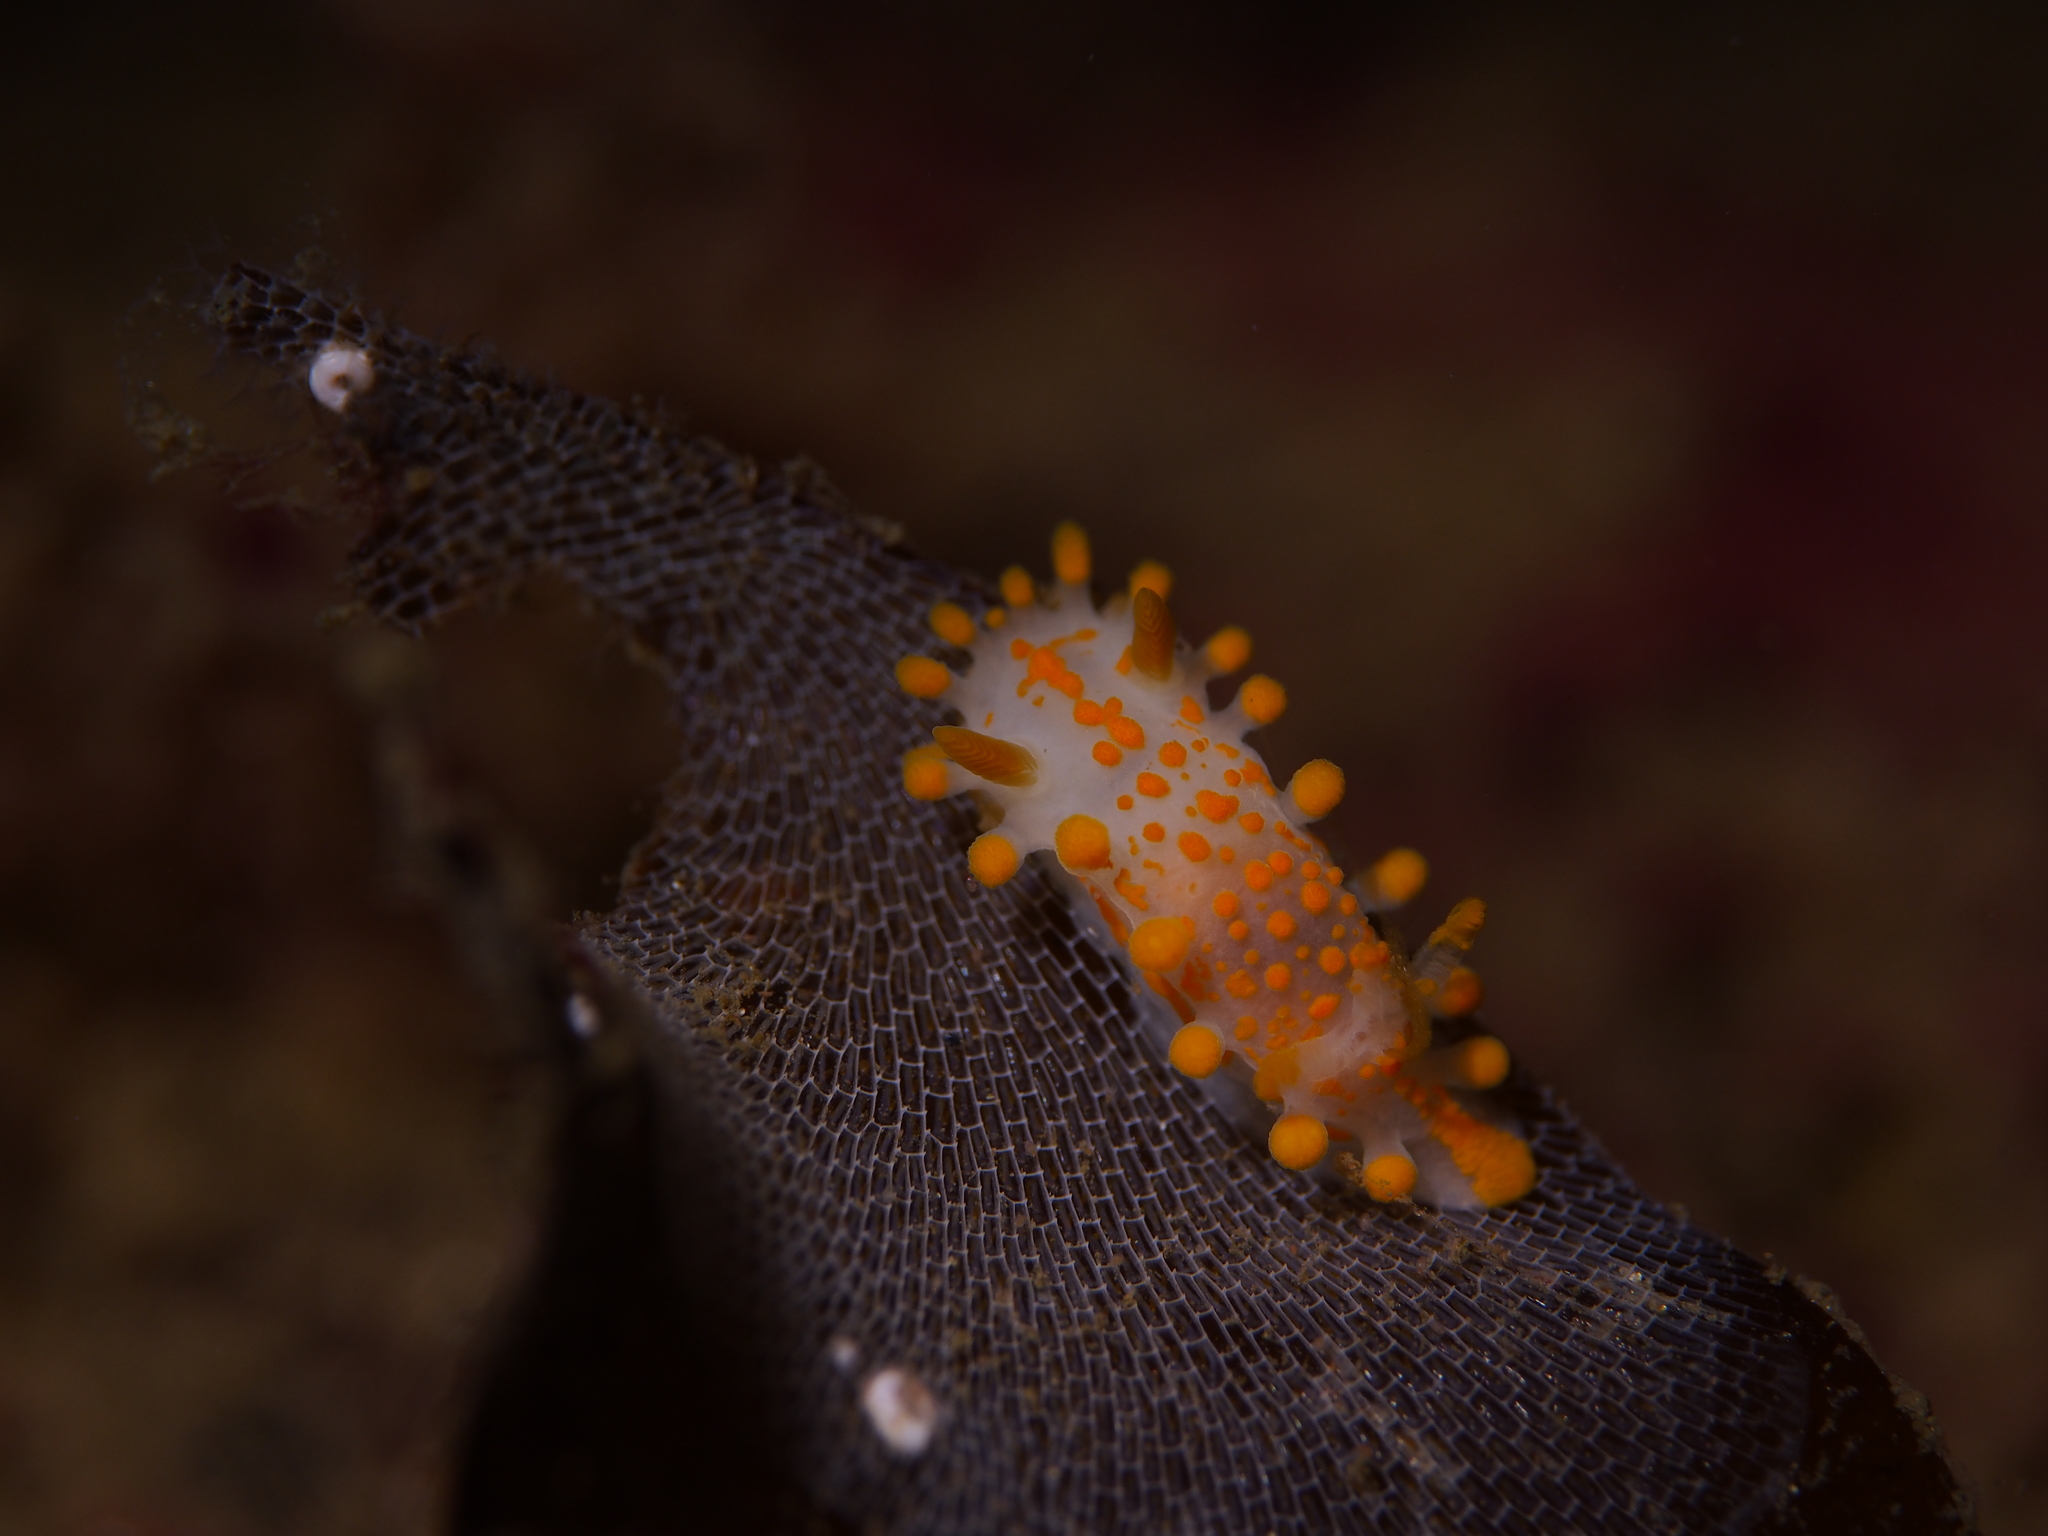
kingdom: Animalia
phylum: Mollusca
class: Gastropoda
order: Nudibranchia
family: Polyceridae
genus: Limacia
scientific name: Limacia clavigera
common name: Orange-clubbed sea slug
